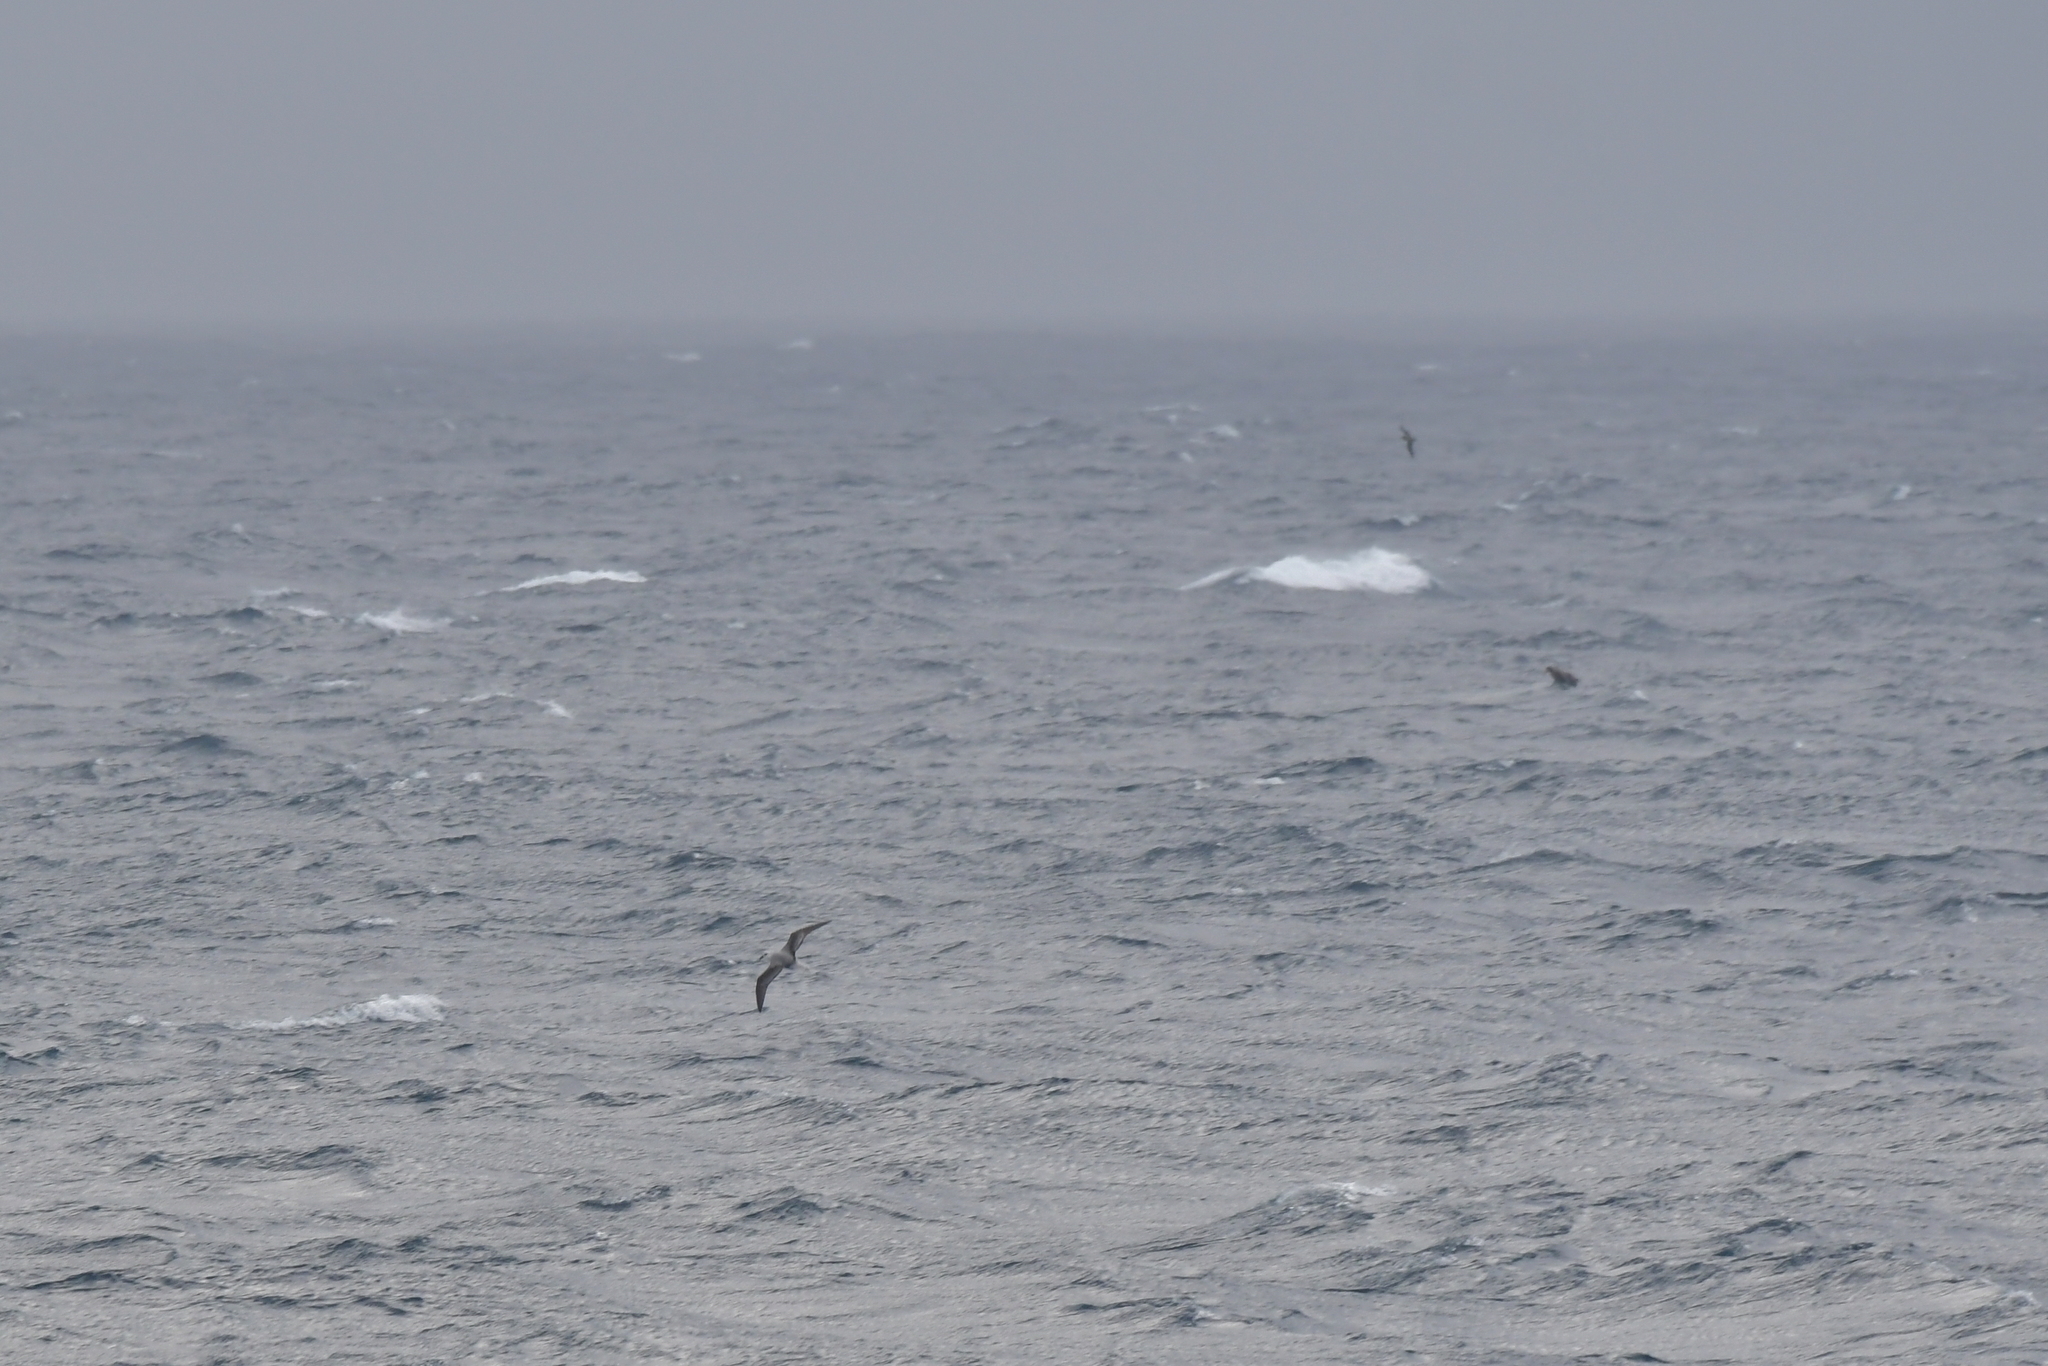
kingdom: Animalia
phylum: Chordata
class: Aves
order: Procellariiformes
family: Procellariidae
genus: Pterodroma
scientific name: Pterodroma lessonii
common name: White-headed petrel
